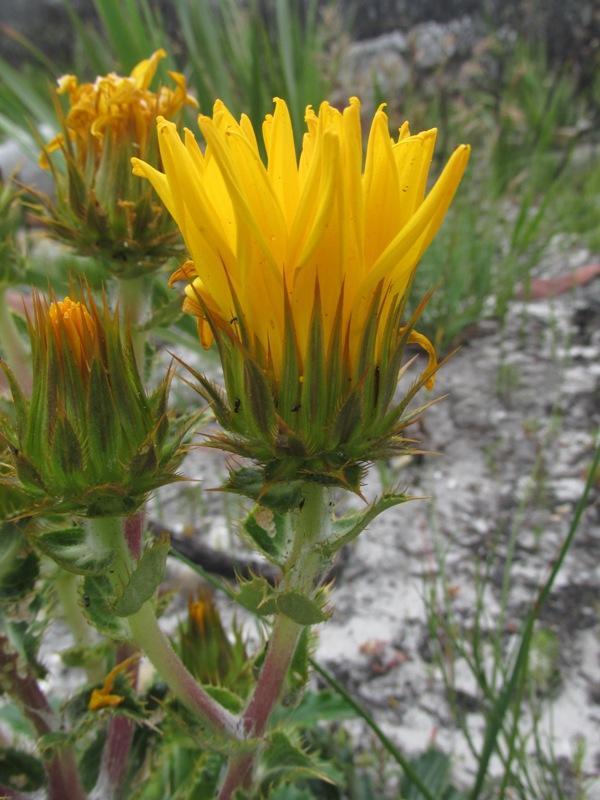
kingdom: Plantae
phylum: Tracheophyta
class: Magnoliopsida
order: Asterales
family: Asteraceae
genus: Berkheya
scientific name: Berkheya armata
